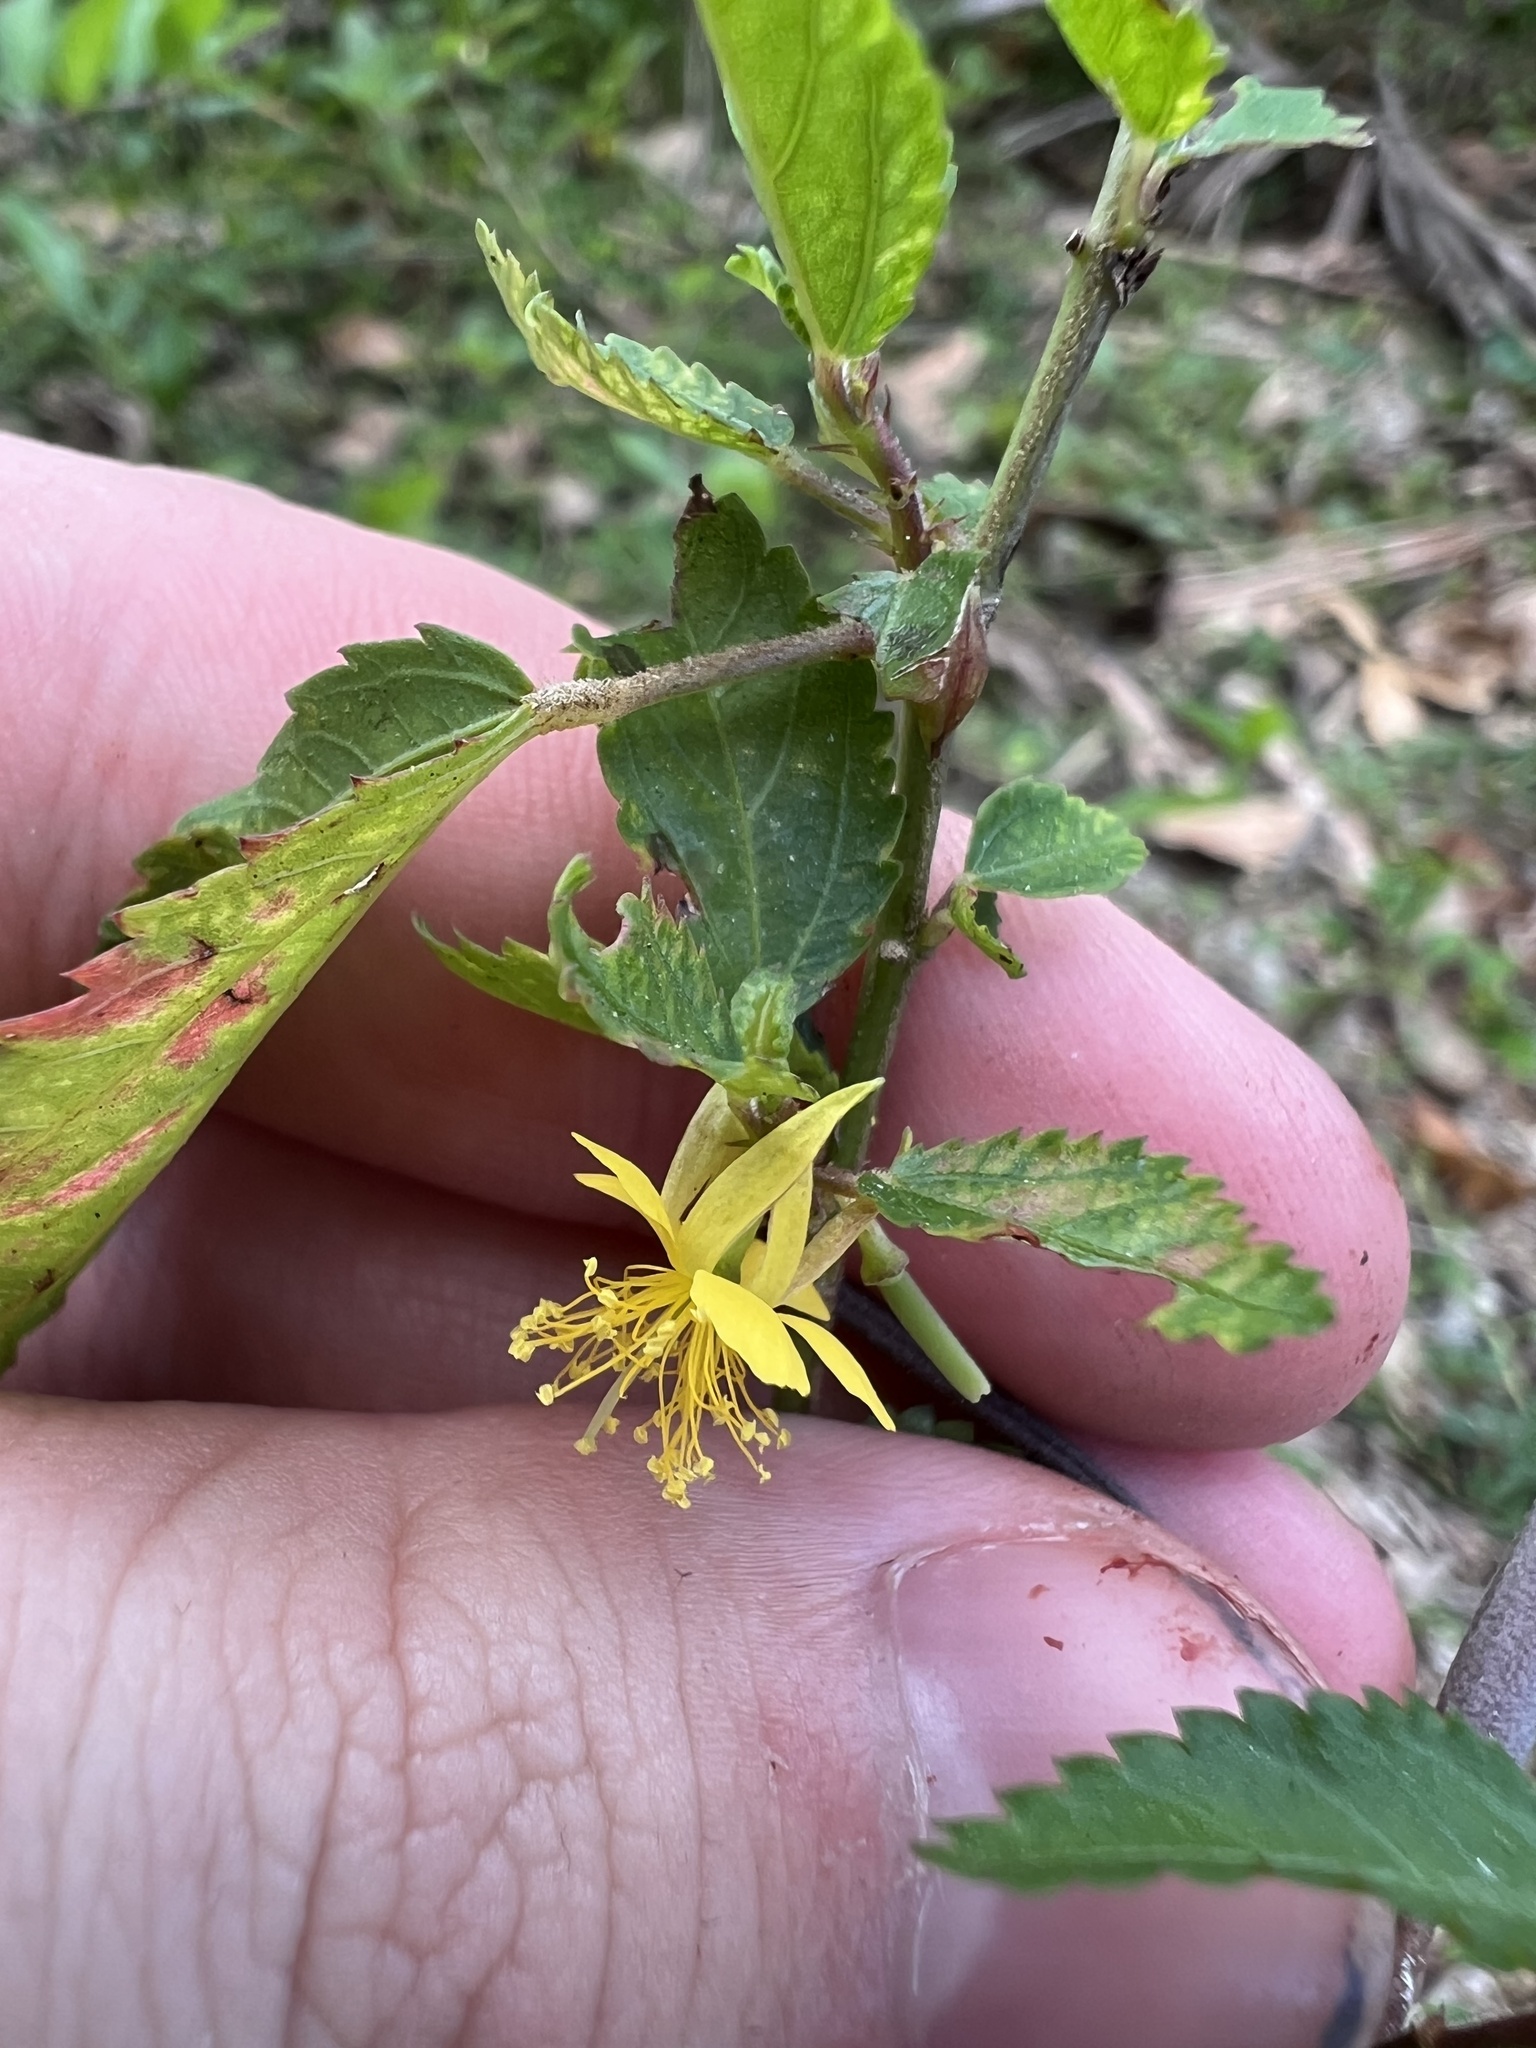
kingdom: Plantae
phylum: Tracheophyta
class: Magnoliopsida
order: Malvales
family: Malvaceae
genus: Corchorus
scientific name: Corchorus siliquosus
